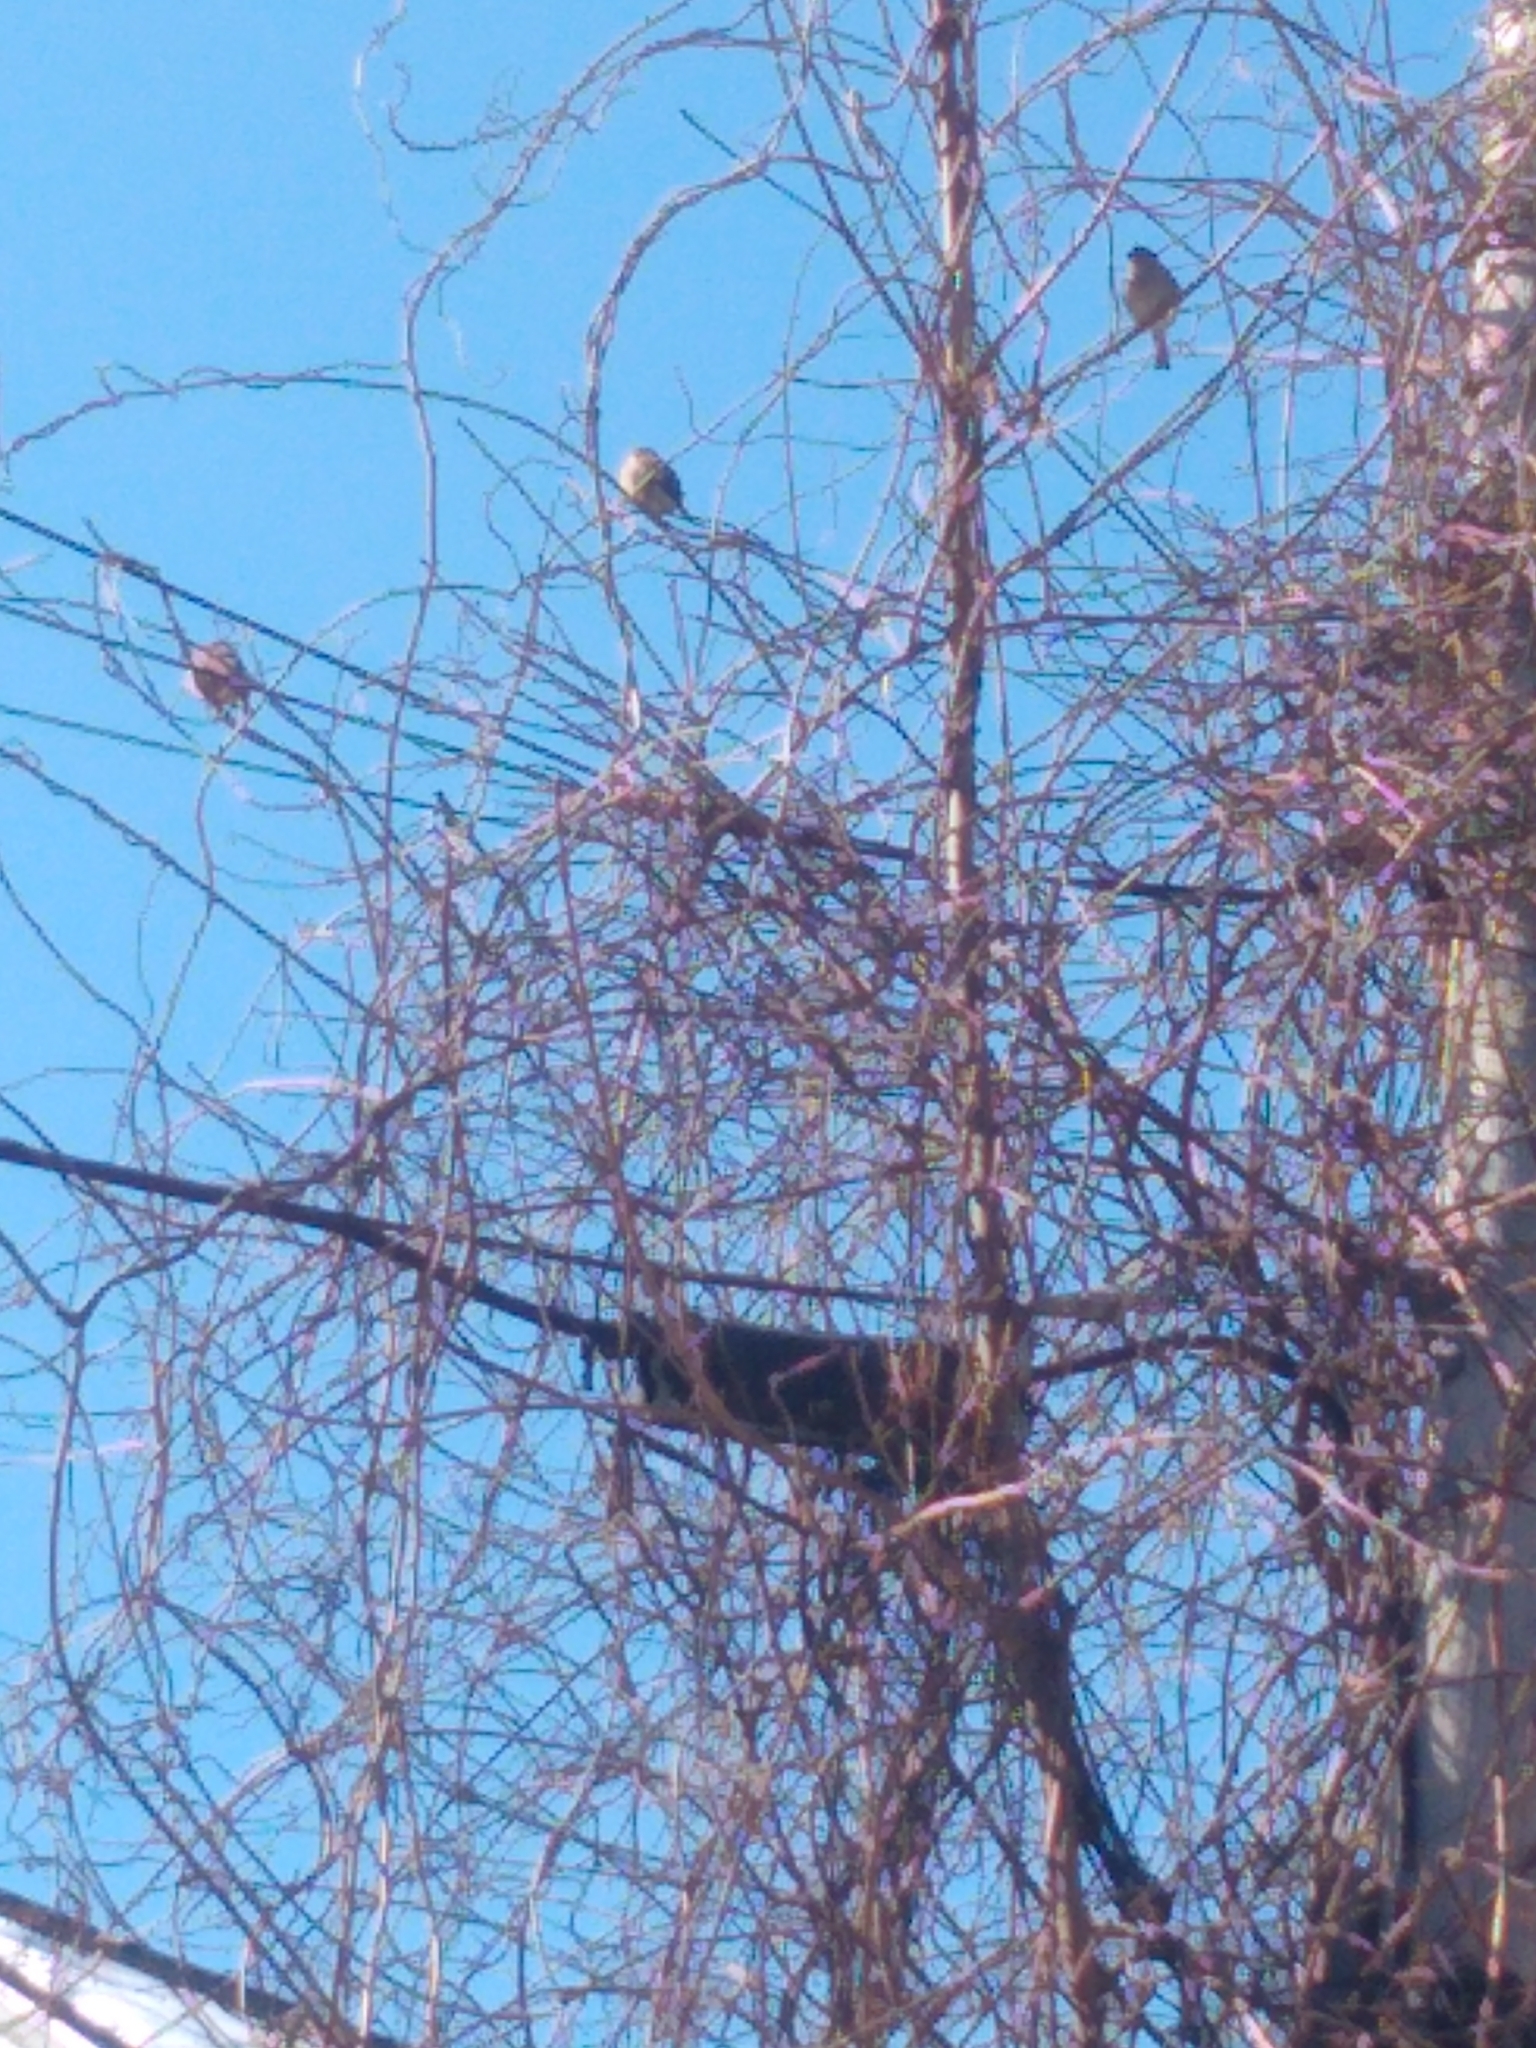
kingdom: Animalia
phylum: Chordata
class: Aves
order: Passeriformes
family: Turdidae
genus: Sialia
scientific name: Sialia sialis
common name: Eastern bluebird
